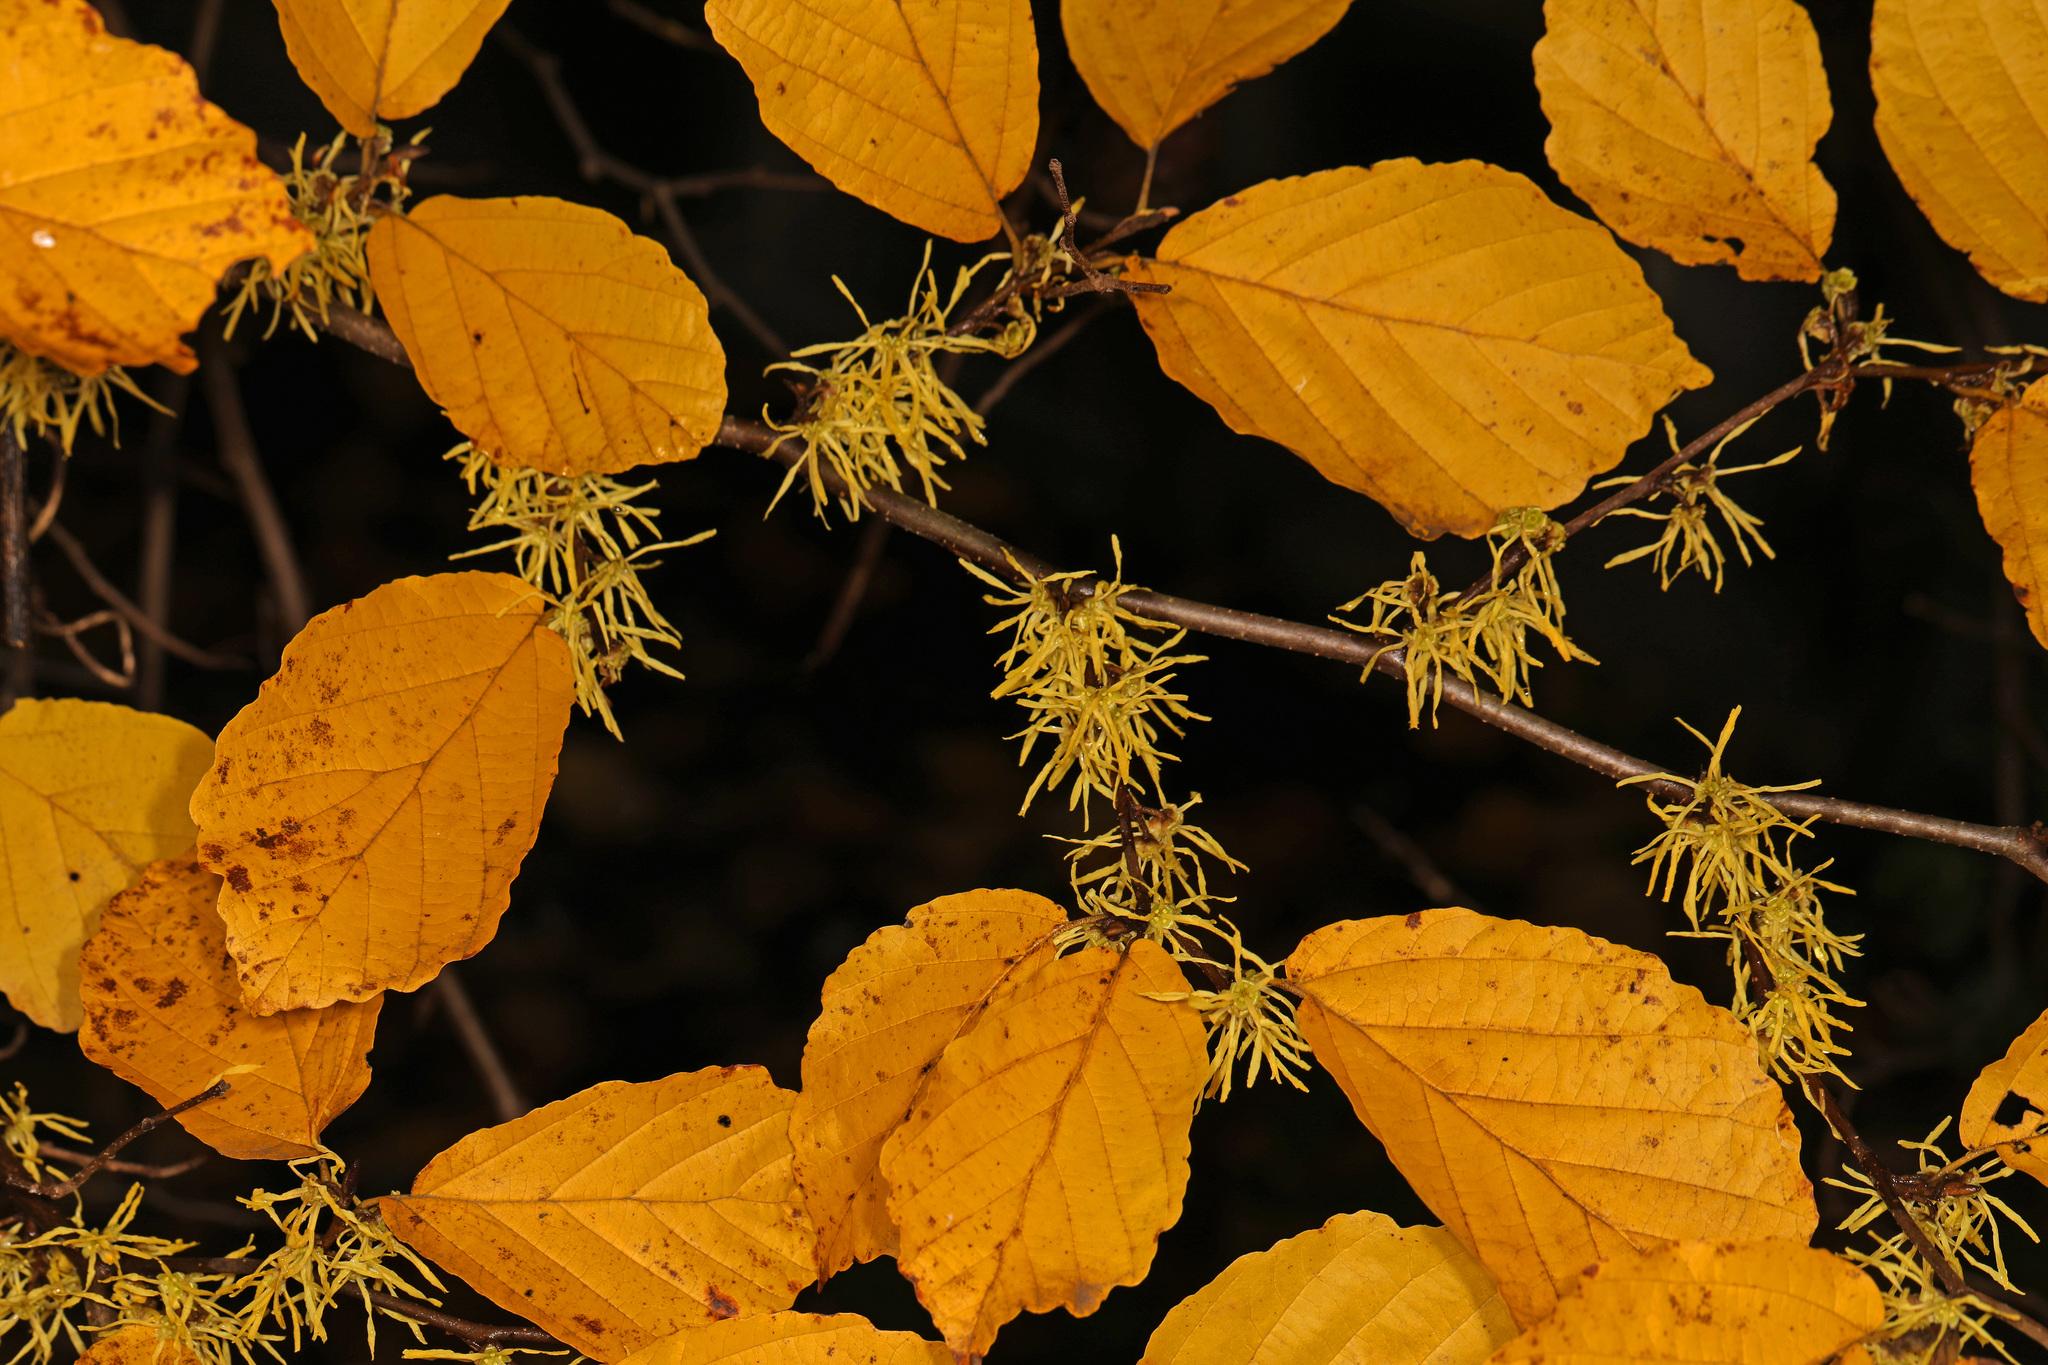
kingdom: Plantae
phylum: Tracheophyta
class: Magnoliopsida
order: Saxifragales
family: Hamamelidaceae
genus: Hamamelis
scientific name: Hamamelis virginiana
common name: Witch-hazel
